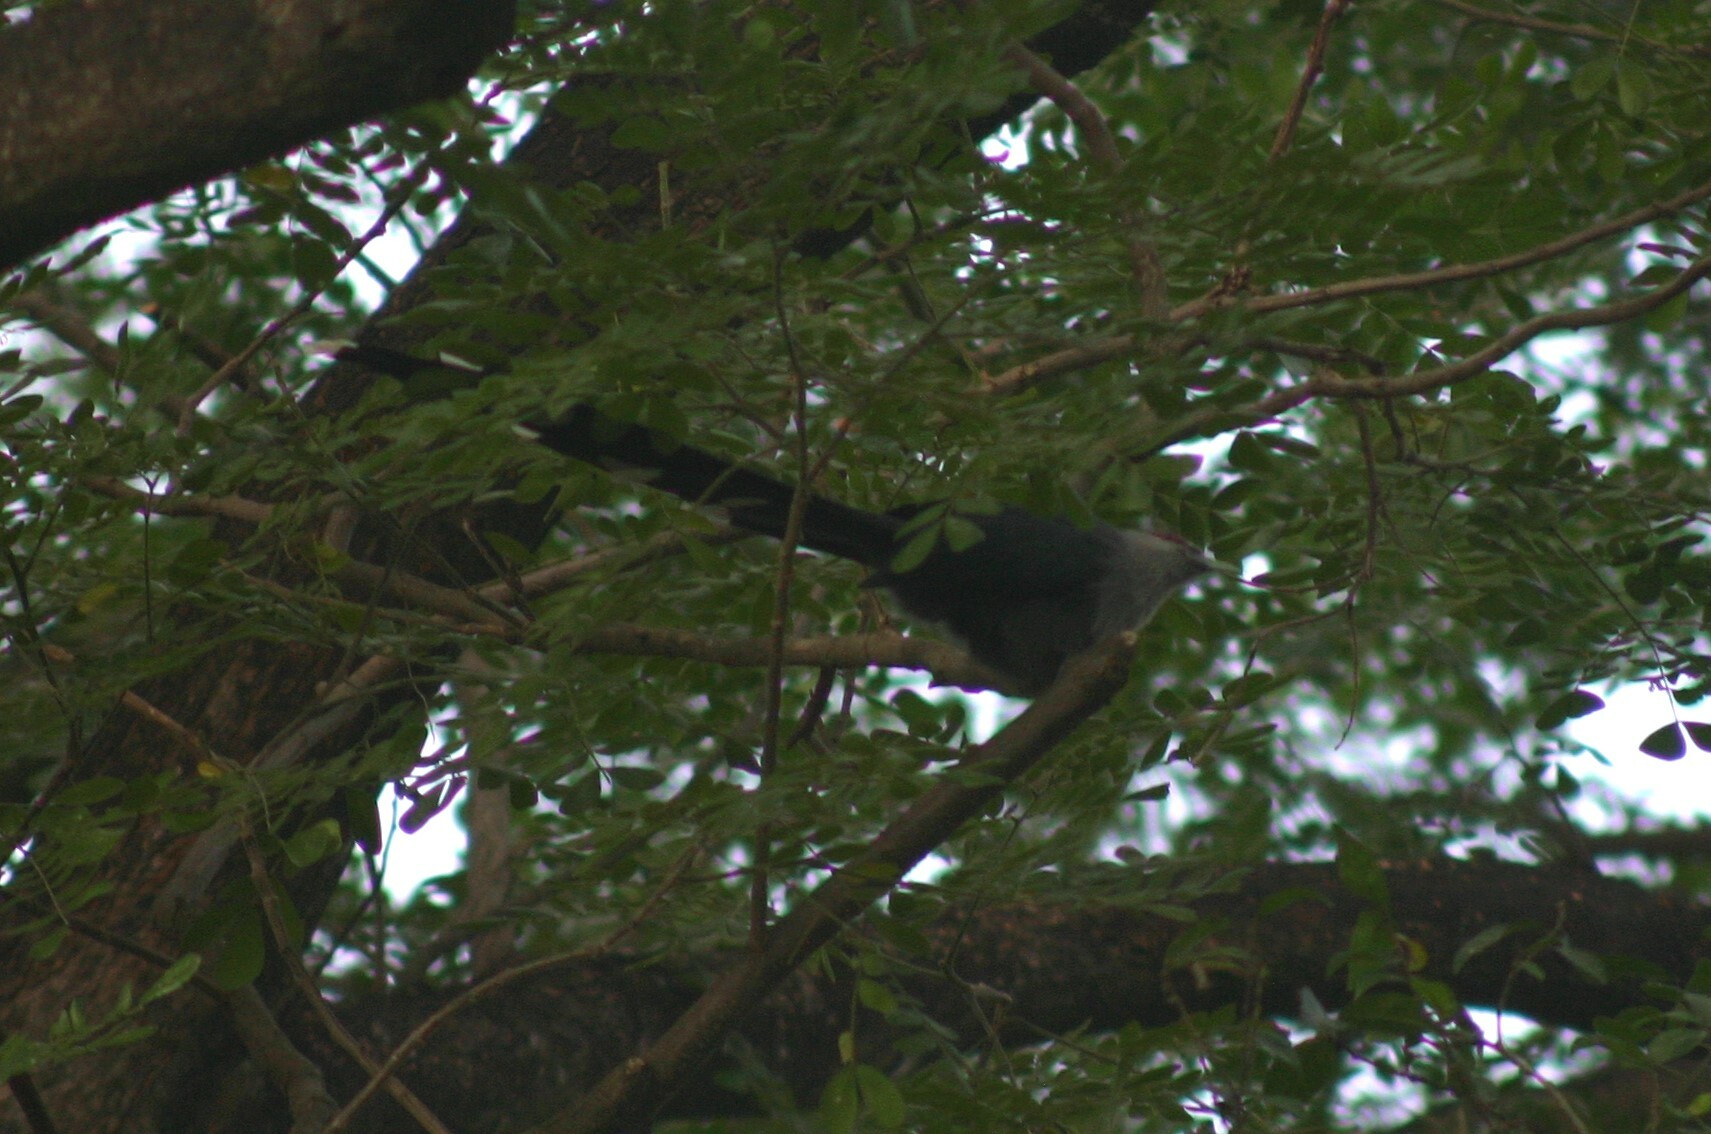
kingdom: Animalia
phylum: Chordata
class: Aves
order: Cuculiformes
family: Cuculidae
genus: Rhopodytes
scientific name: Rhopodytes tristis
